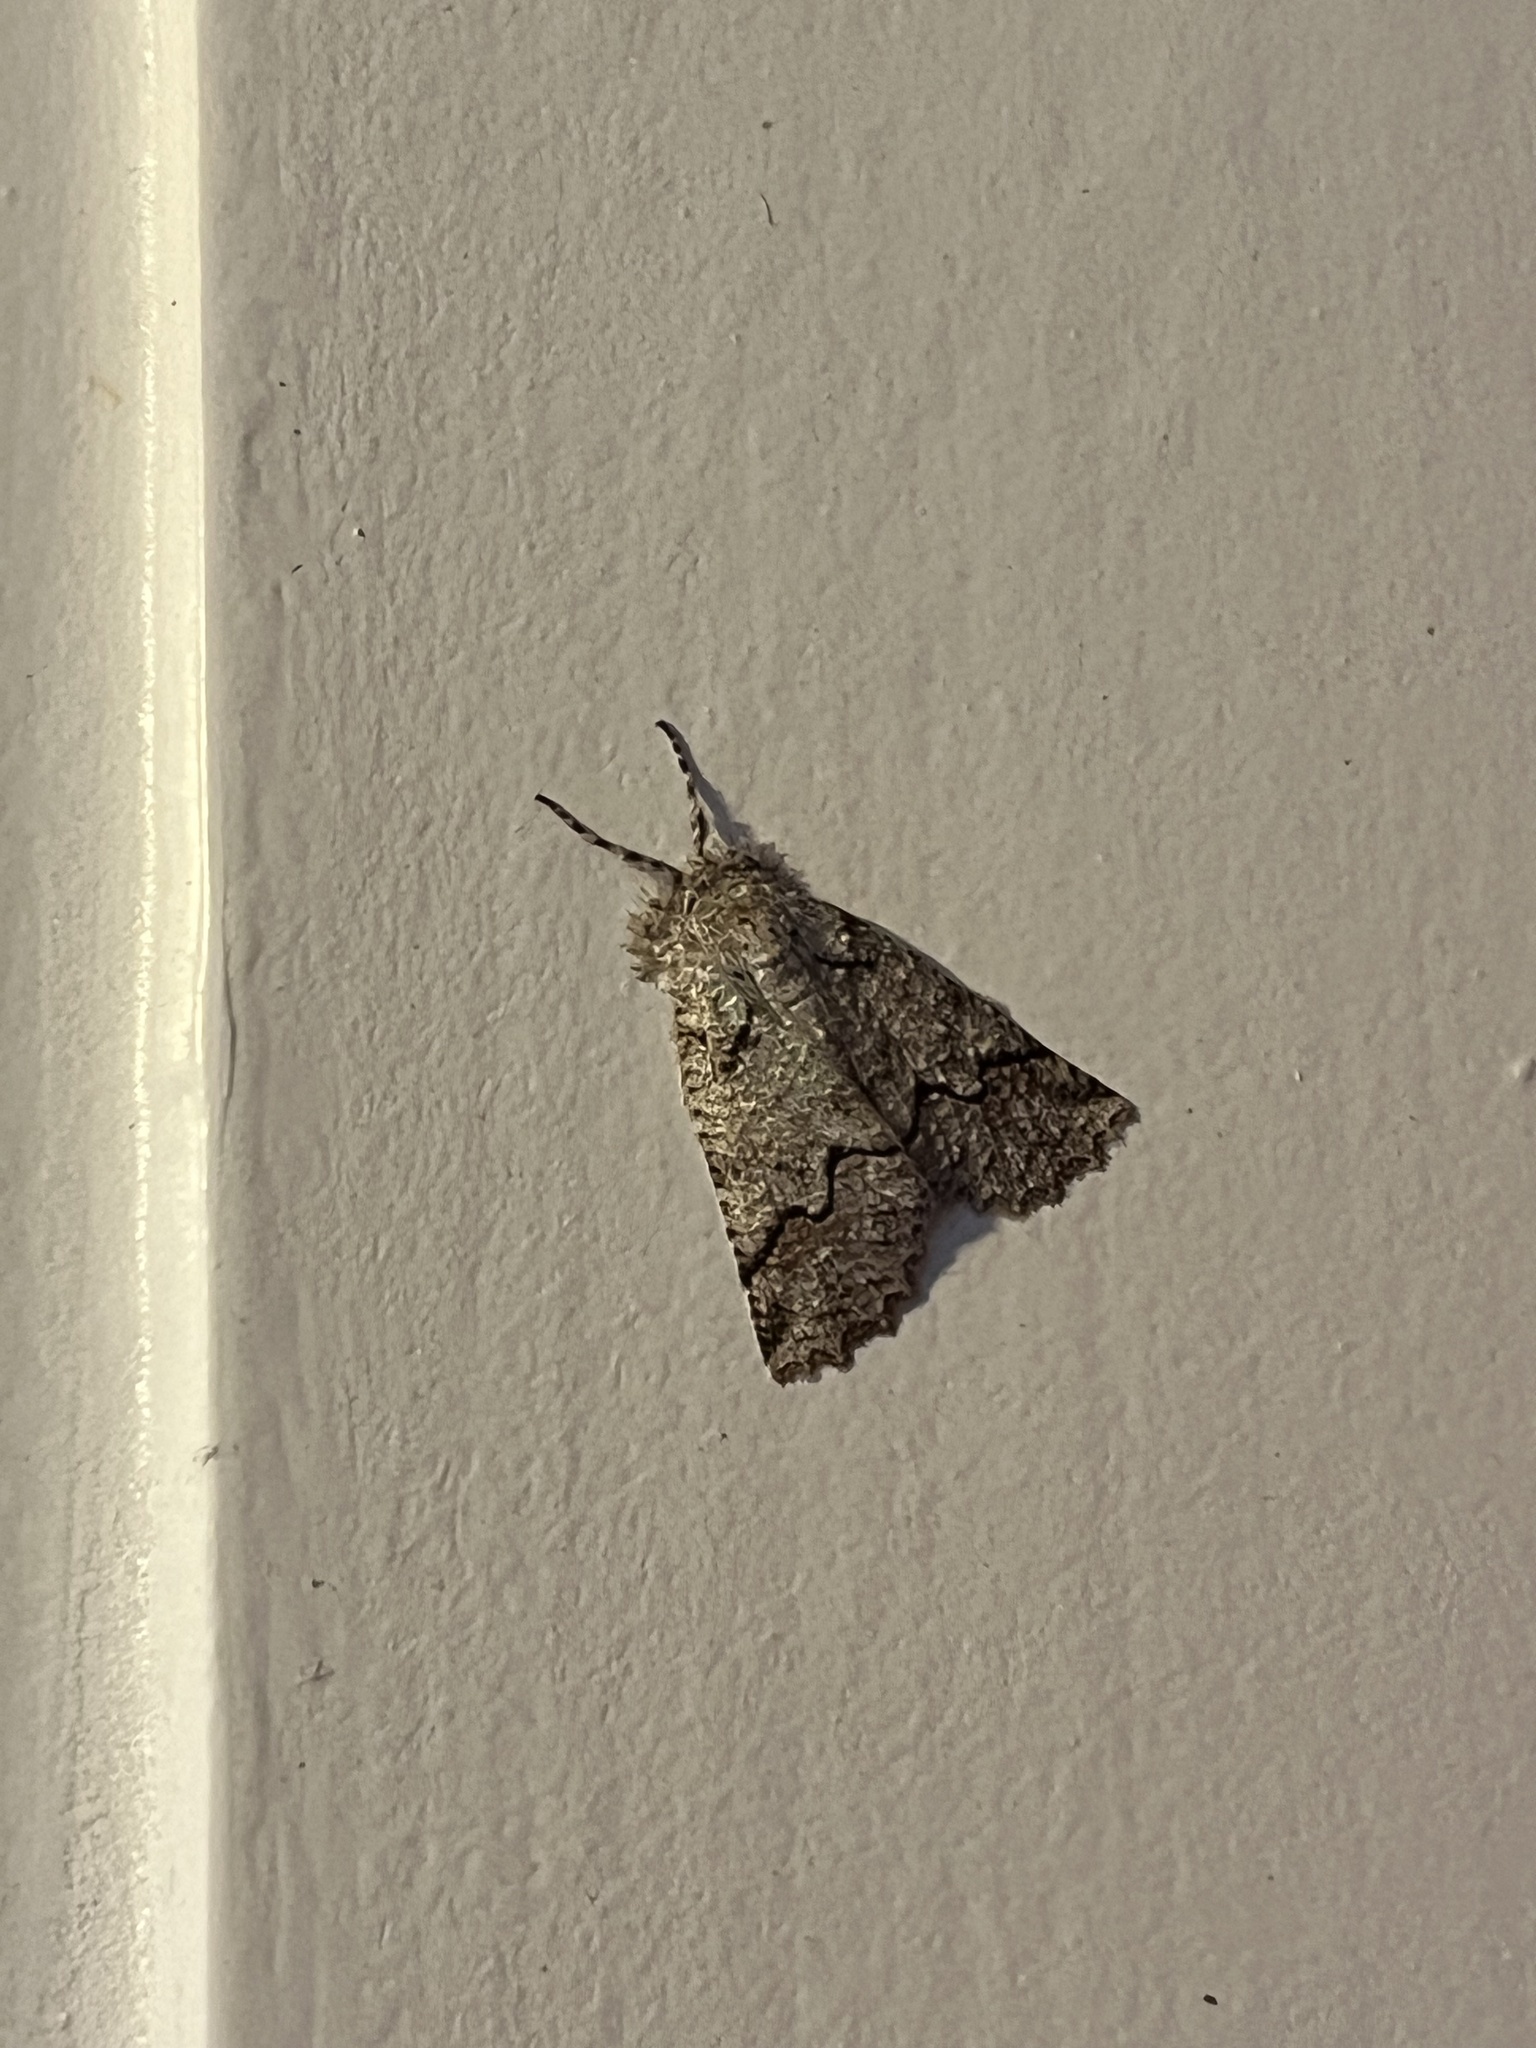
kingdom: Animalia
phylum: Arthropoda
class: Insecta
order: Lepidoptera
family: Geometridae
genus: Declana
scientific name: Declana floccosa
